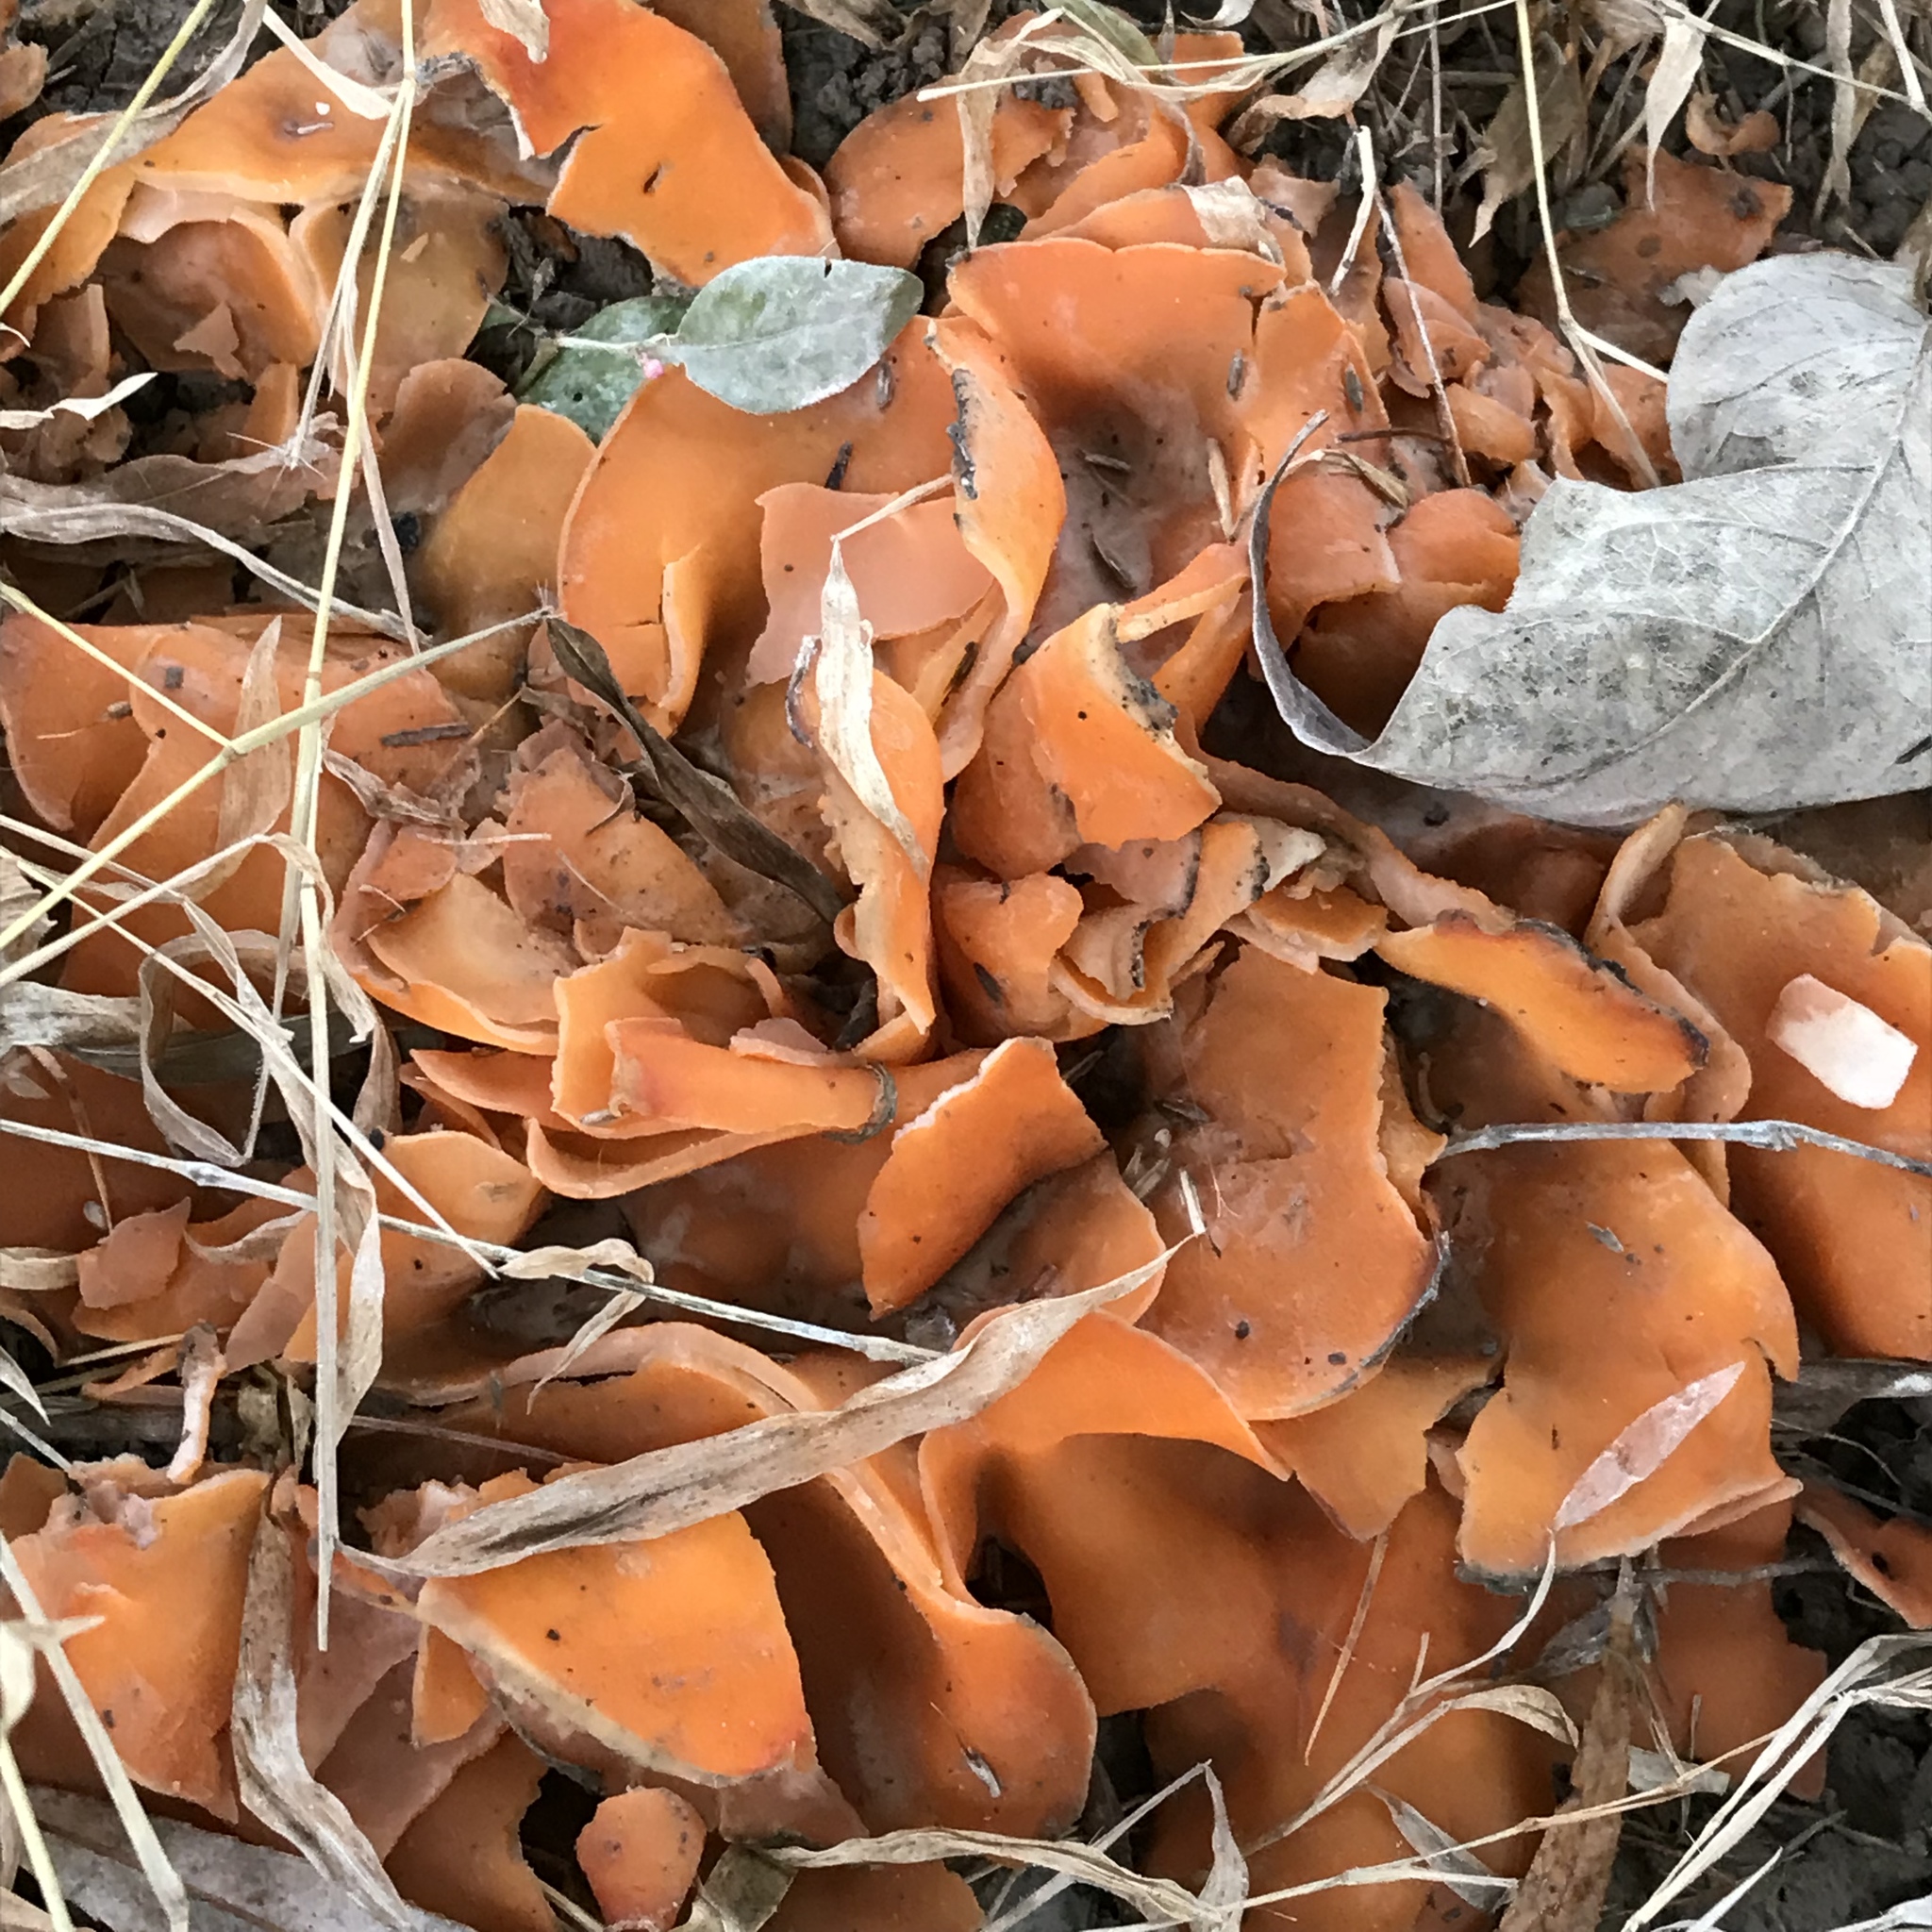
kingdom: Fungi
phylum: Ascomycota
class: Pezizomycetes
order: Pezizales
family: Pyronemataceae
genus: Aleuria
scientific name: Aleuria aurantia
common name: Orange peel fungus
